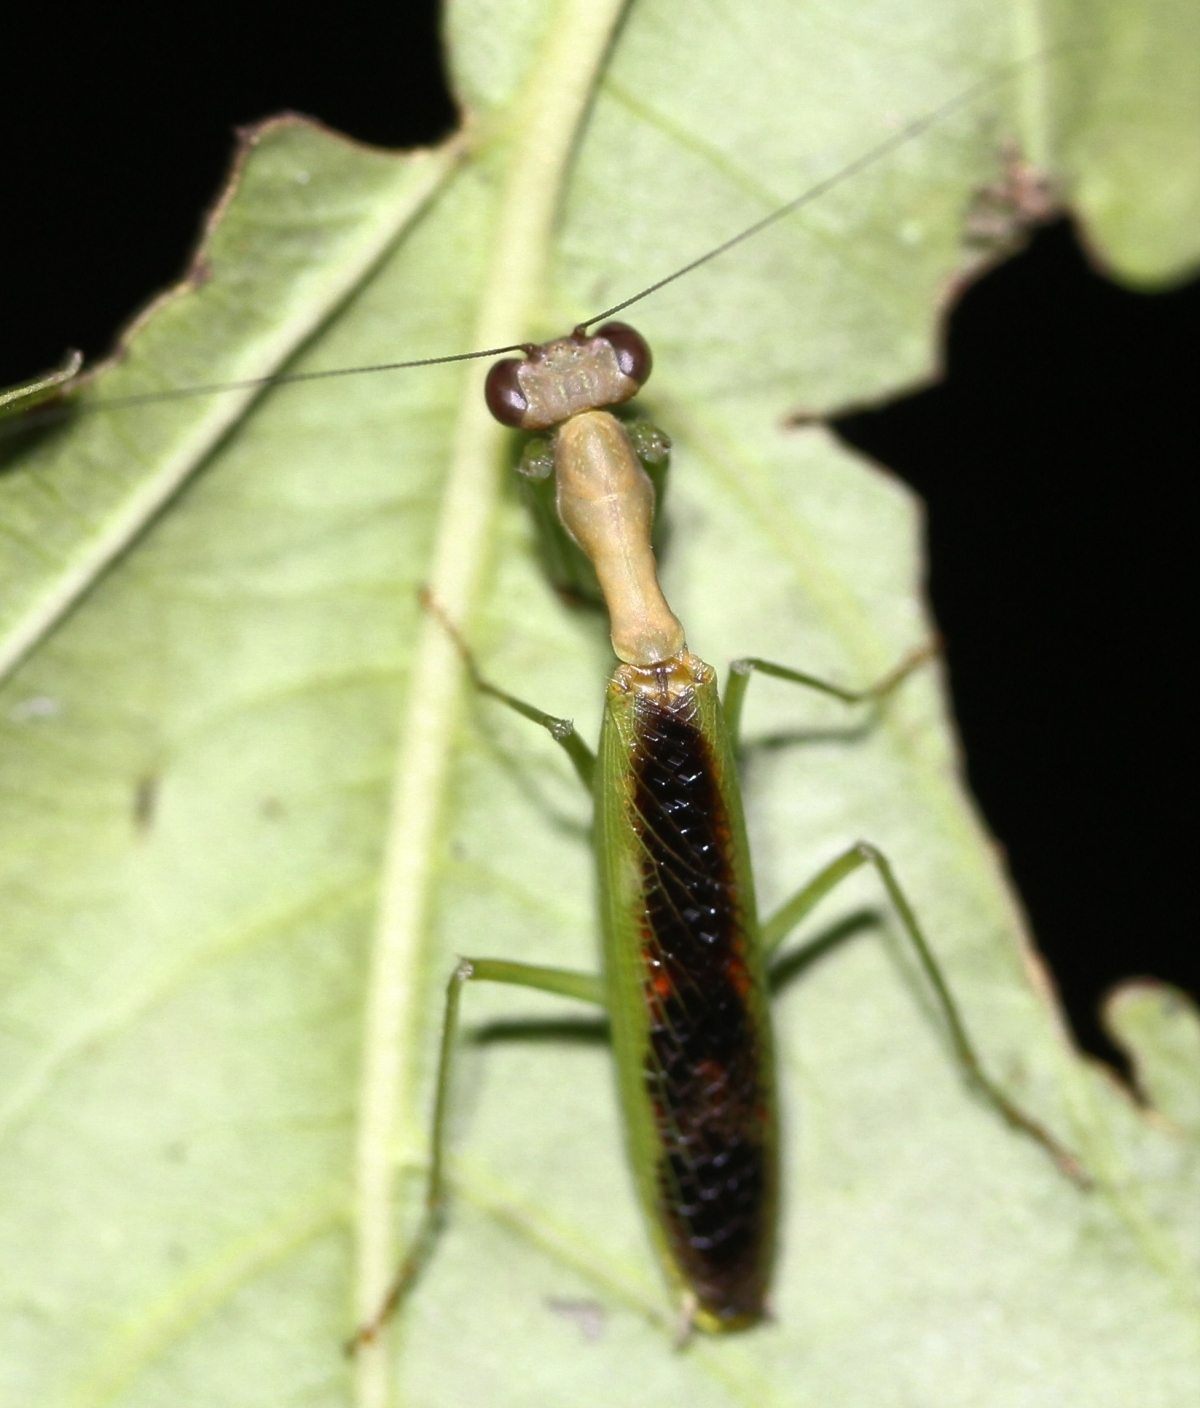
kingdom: Animalia
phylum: Arthropoda
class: Insecta
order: Mantodea
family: Acanthopidae
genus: Acontista
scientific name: Acontista aurantiaca
